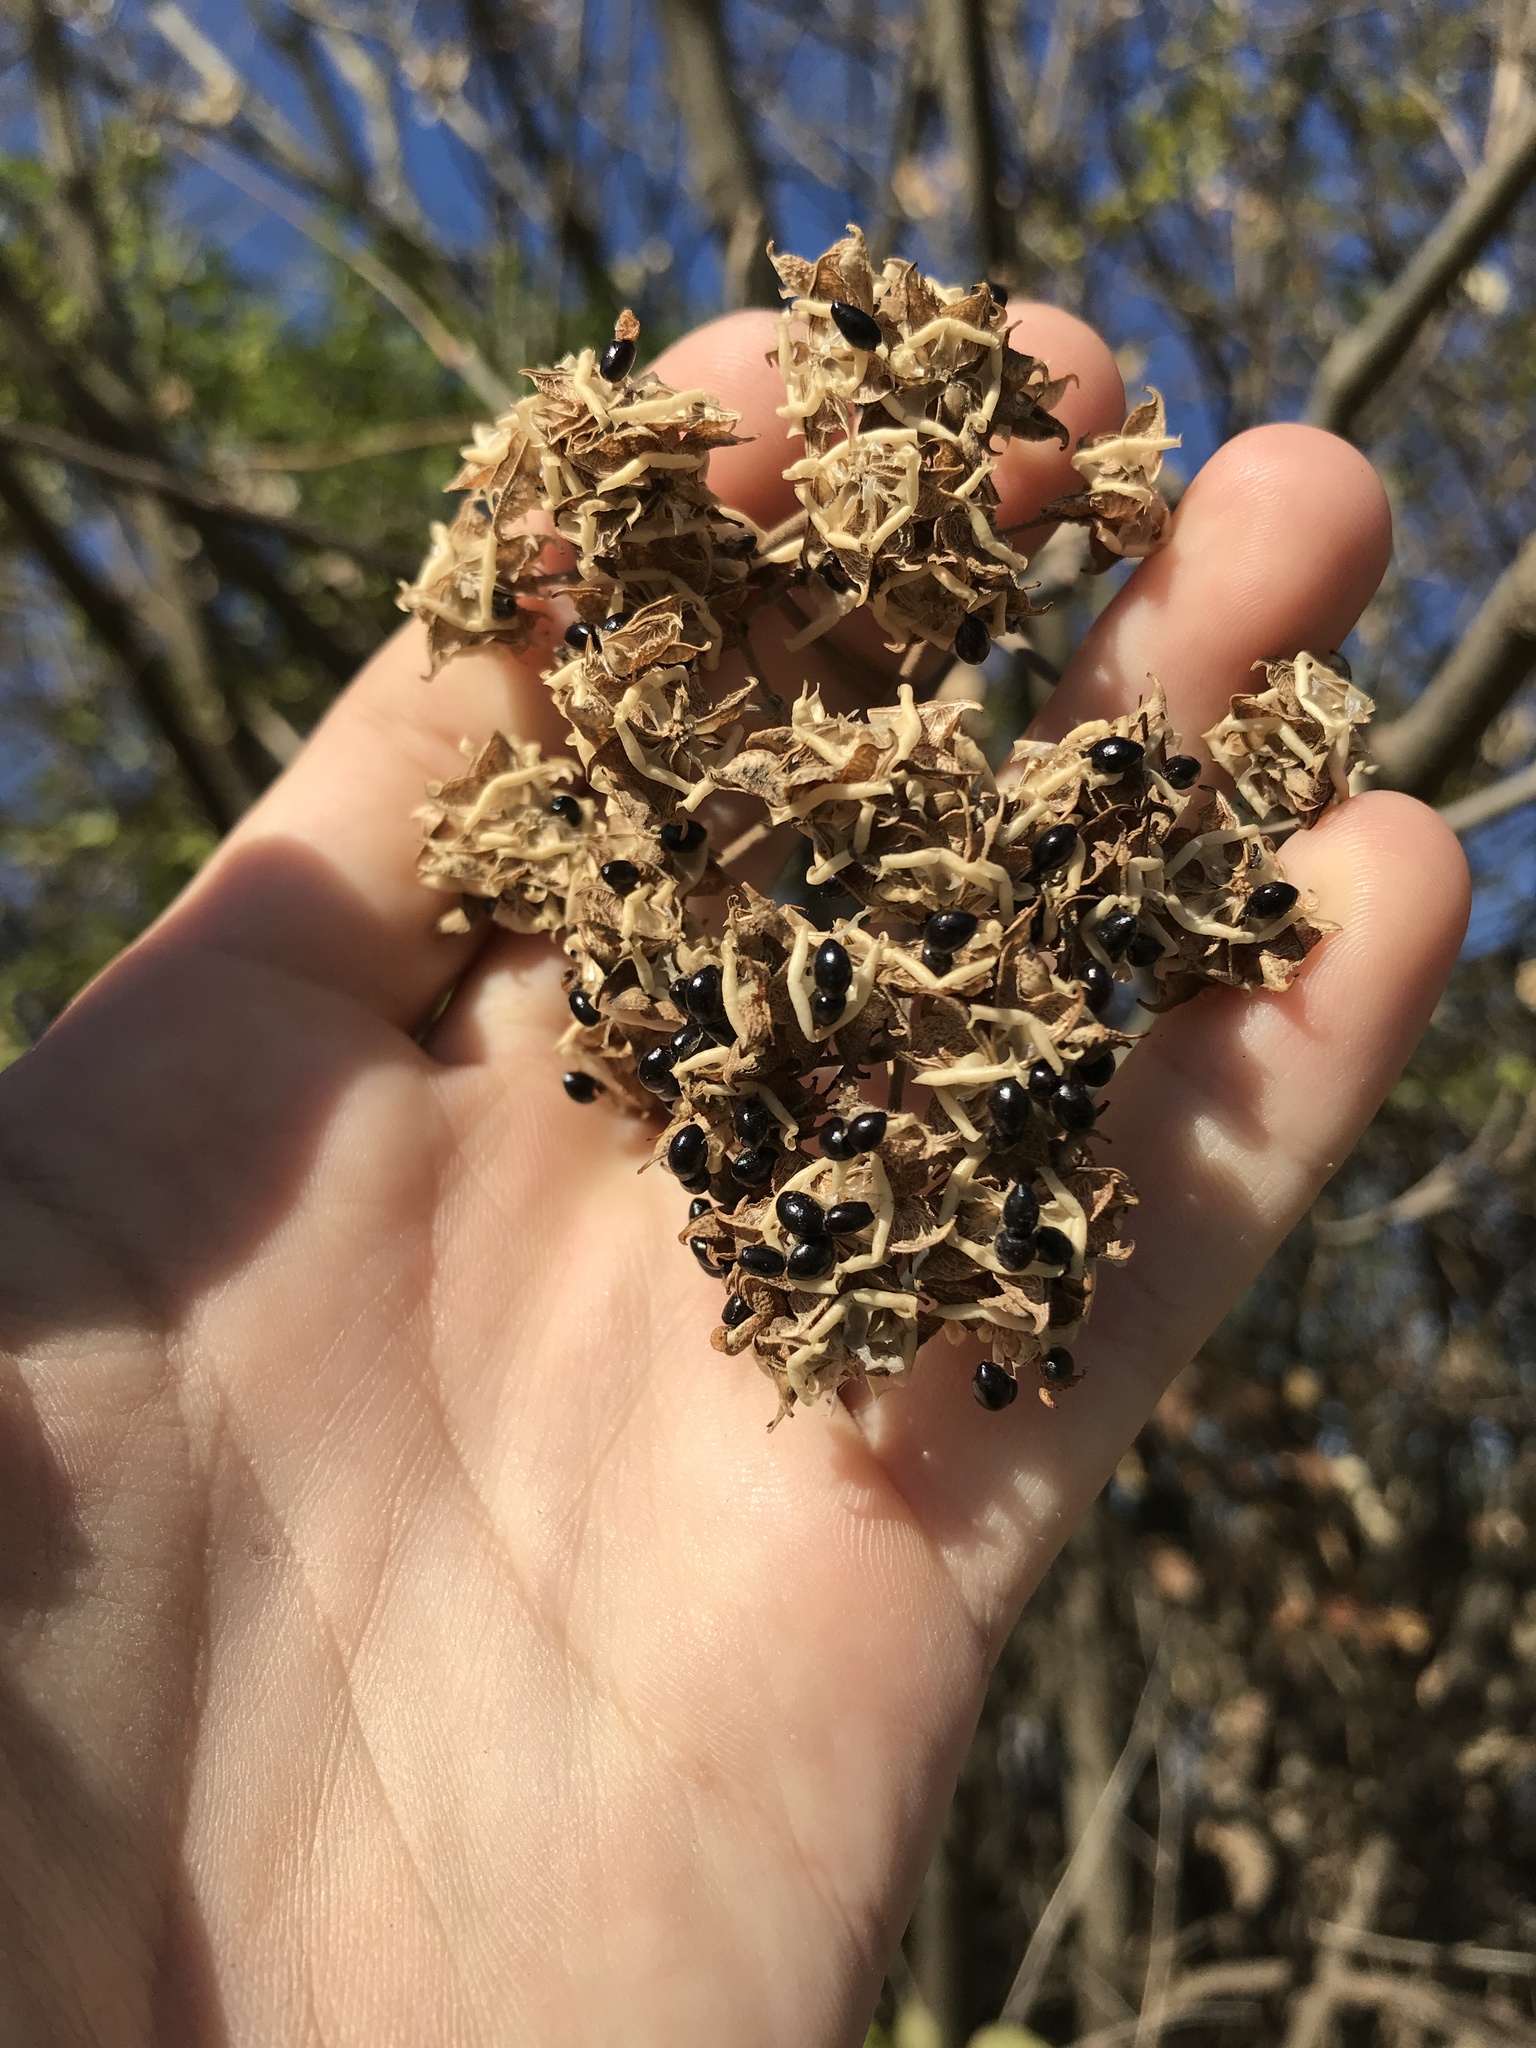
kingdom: Plantae
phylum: Tracheophyta
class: Magnoliopsida
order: Sapindales
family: Rutaceae
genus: Tetradium
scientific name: Tetradium daniellii
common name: Bee-bee tree
